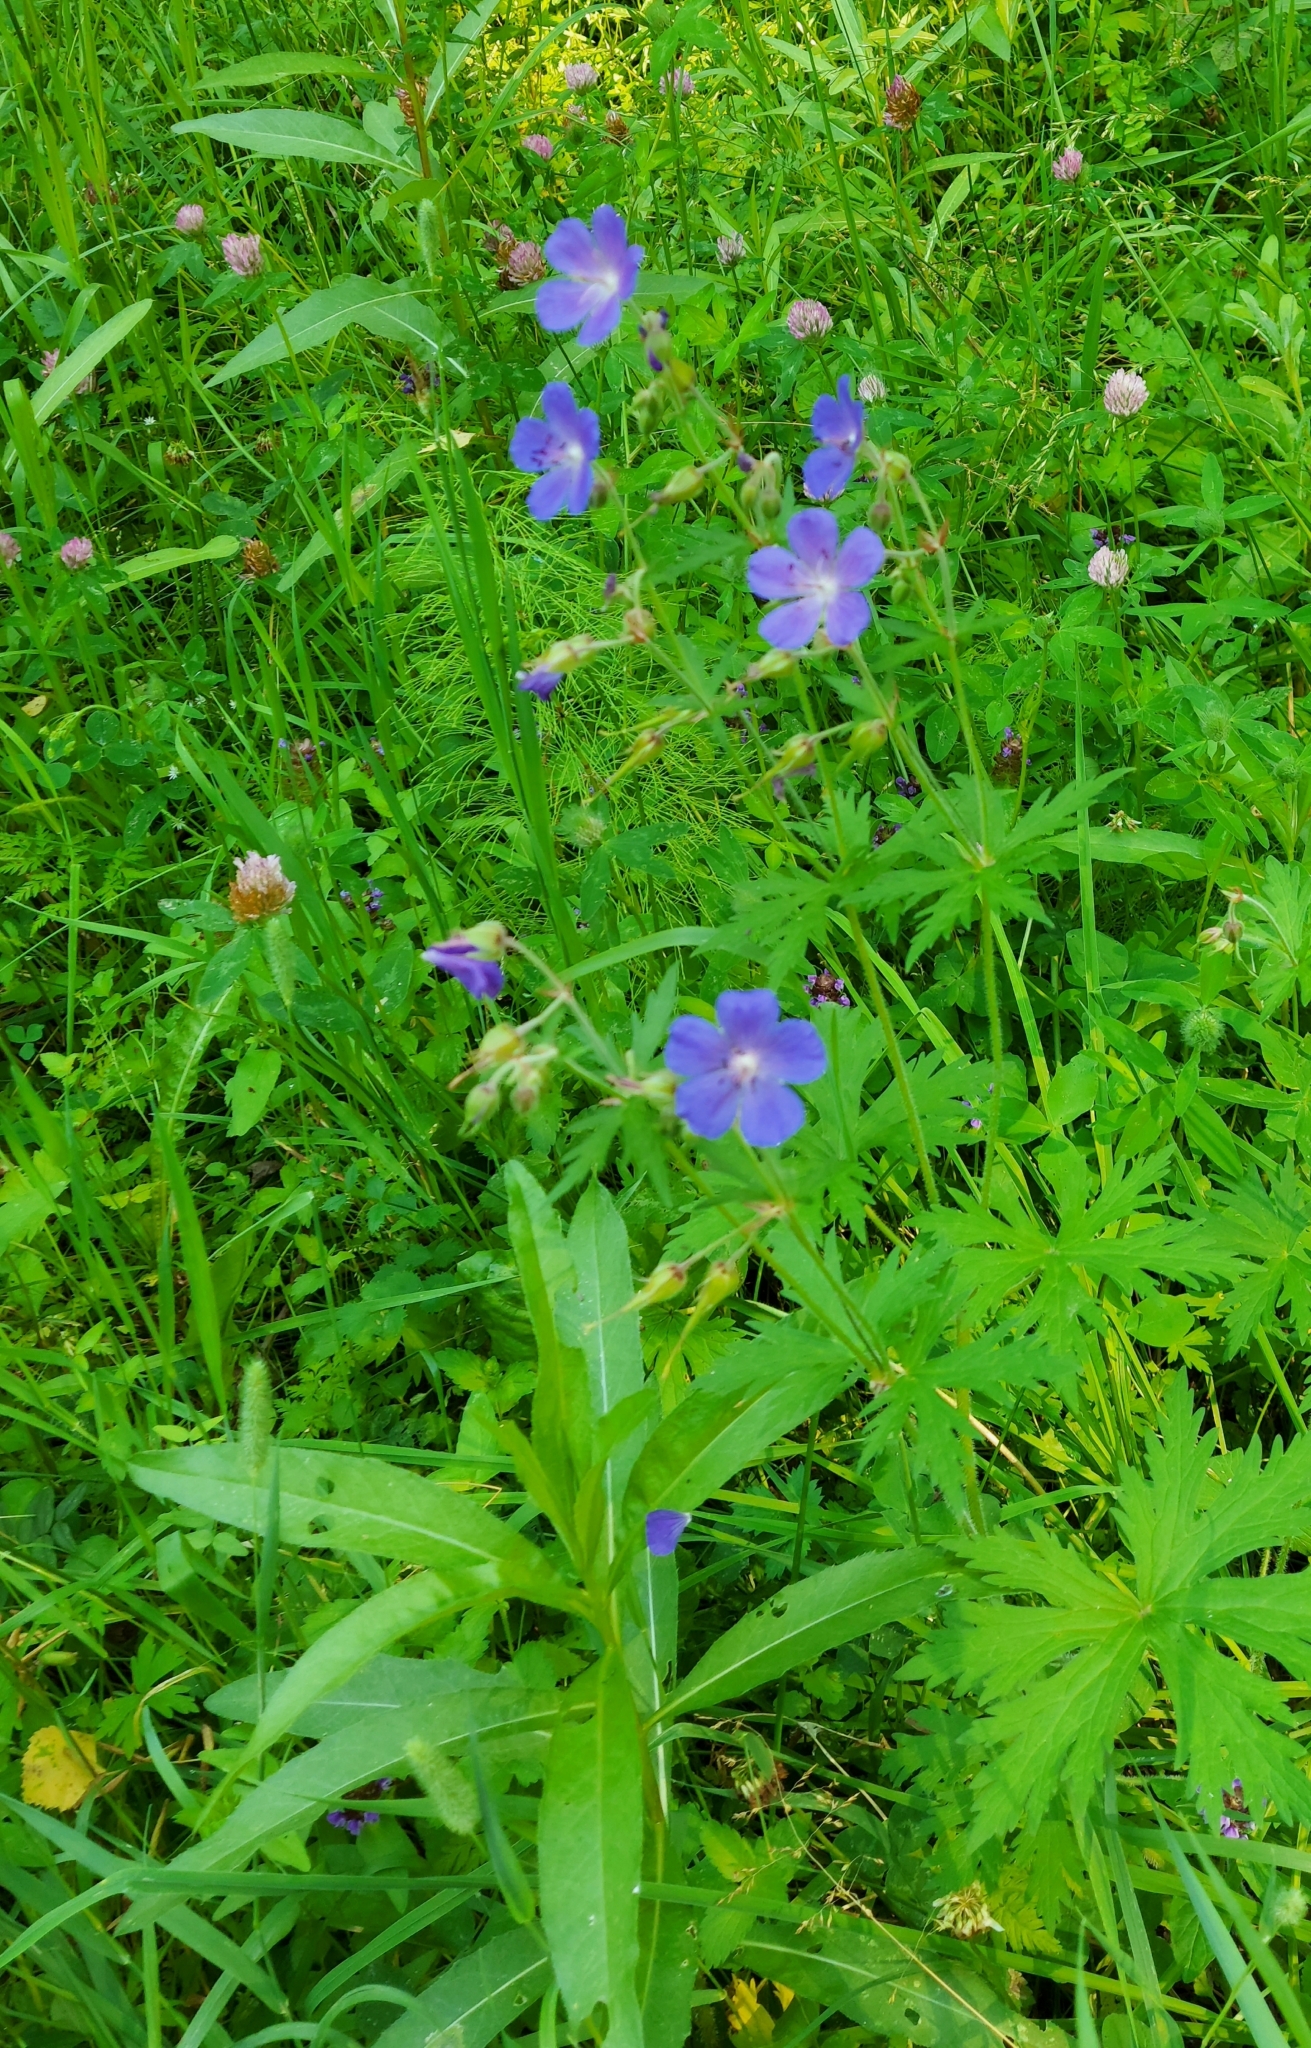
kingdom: Plantae
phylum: Tracheophyta
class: Magnoliopsida
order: Geraniales
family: Geraniaceae
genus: Geranium
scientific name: Geranium pratense
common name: Meadow crane's-bill
